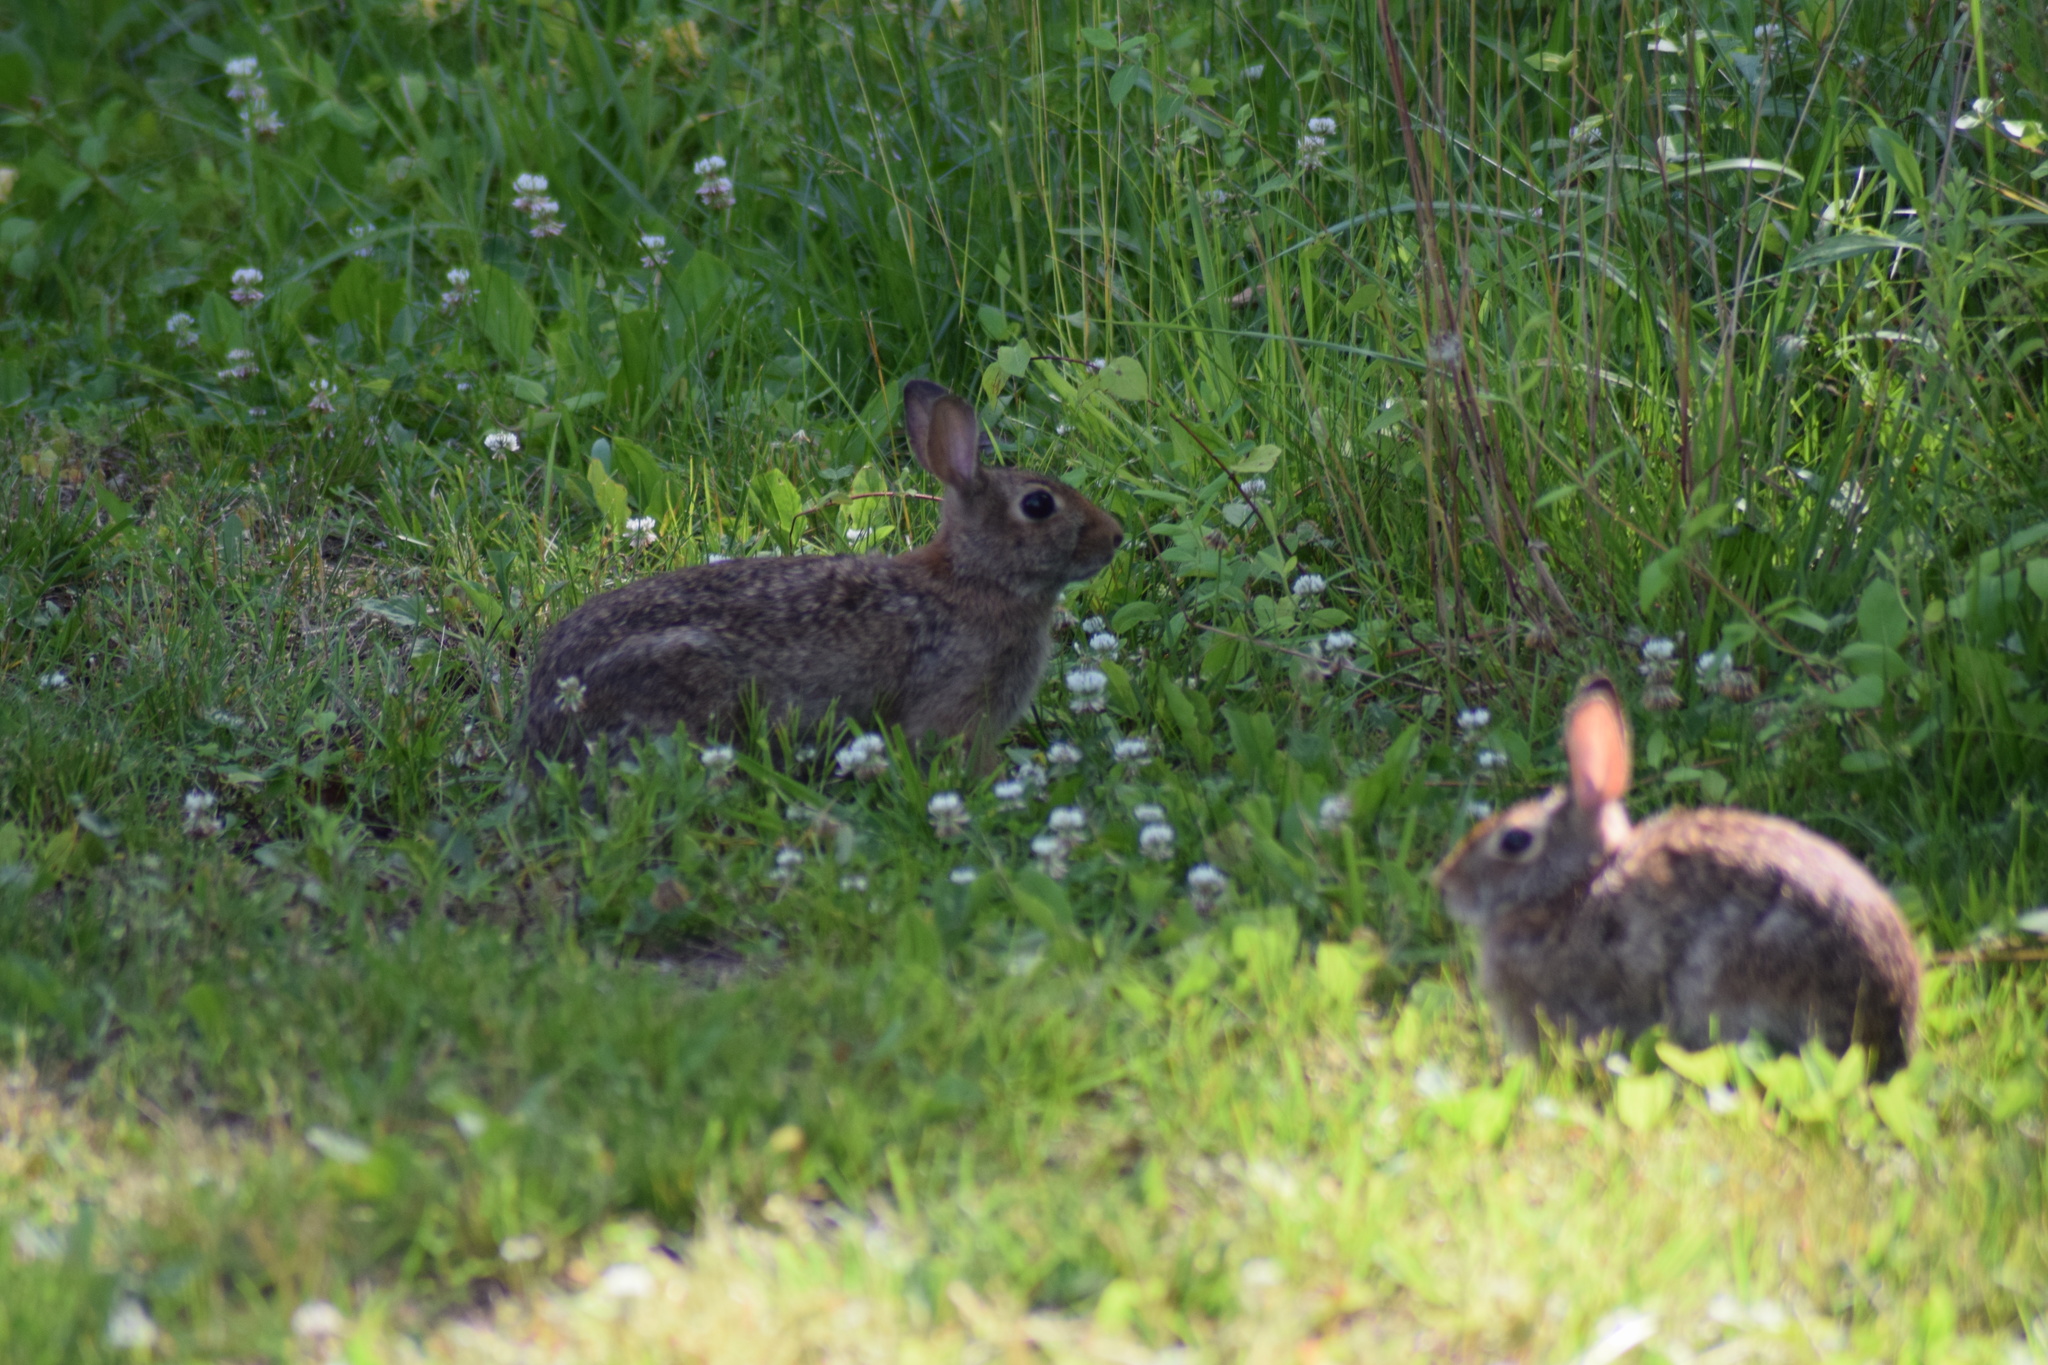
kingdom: Animalia
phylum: Chordata
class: Mammalia
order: Lagomorpha
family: Leporidae
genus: Sylvilagus
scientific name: Sylvilagus floridanus
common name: Eastern cottontail
